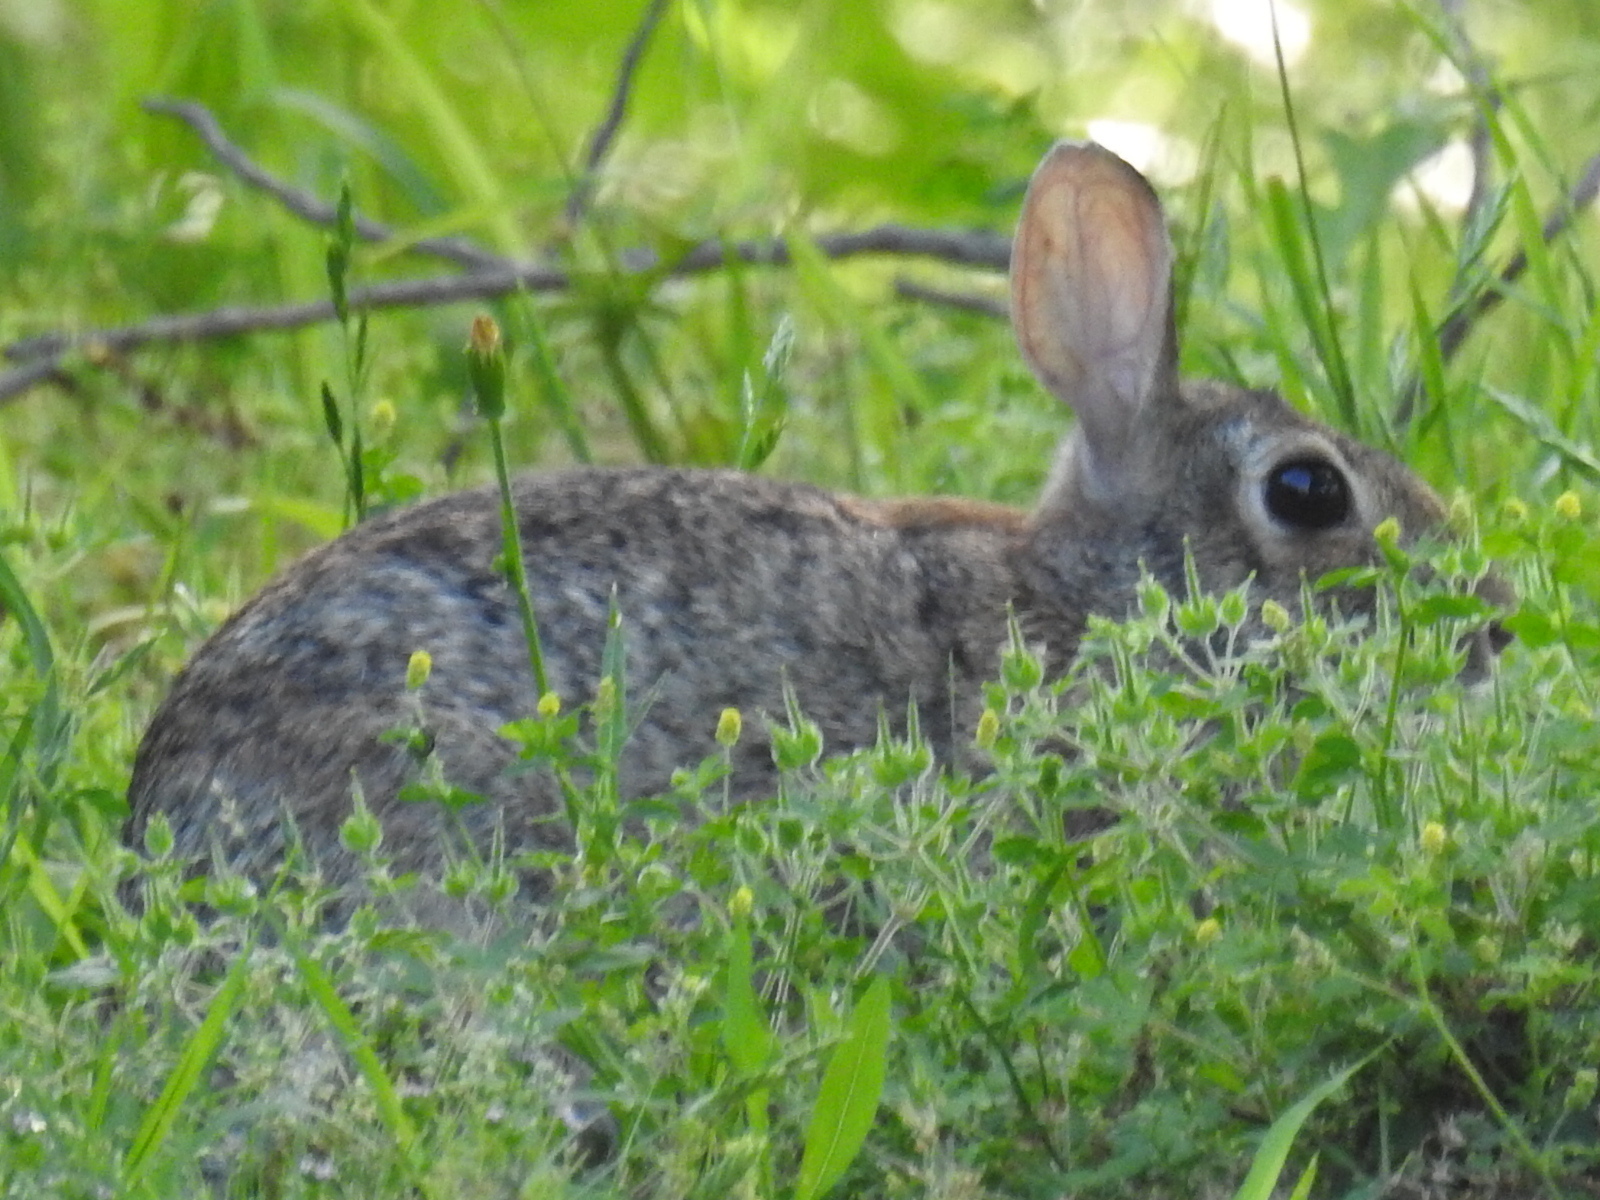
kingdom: Animalia
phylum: Chordata
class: Mammalia
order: Lagomorpha
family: Leporidae
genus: Sylvilagus
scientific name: Sylvilagus floridanus
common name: Eastern cottontail
